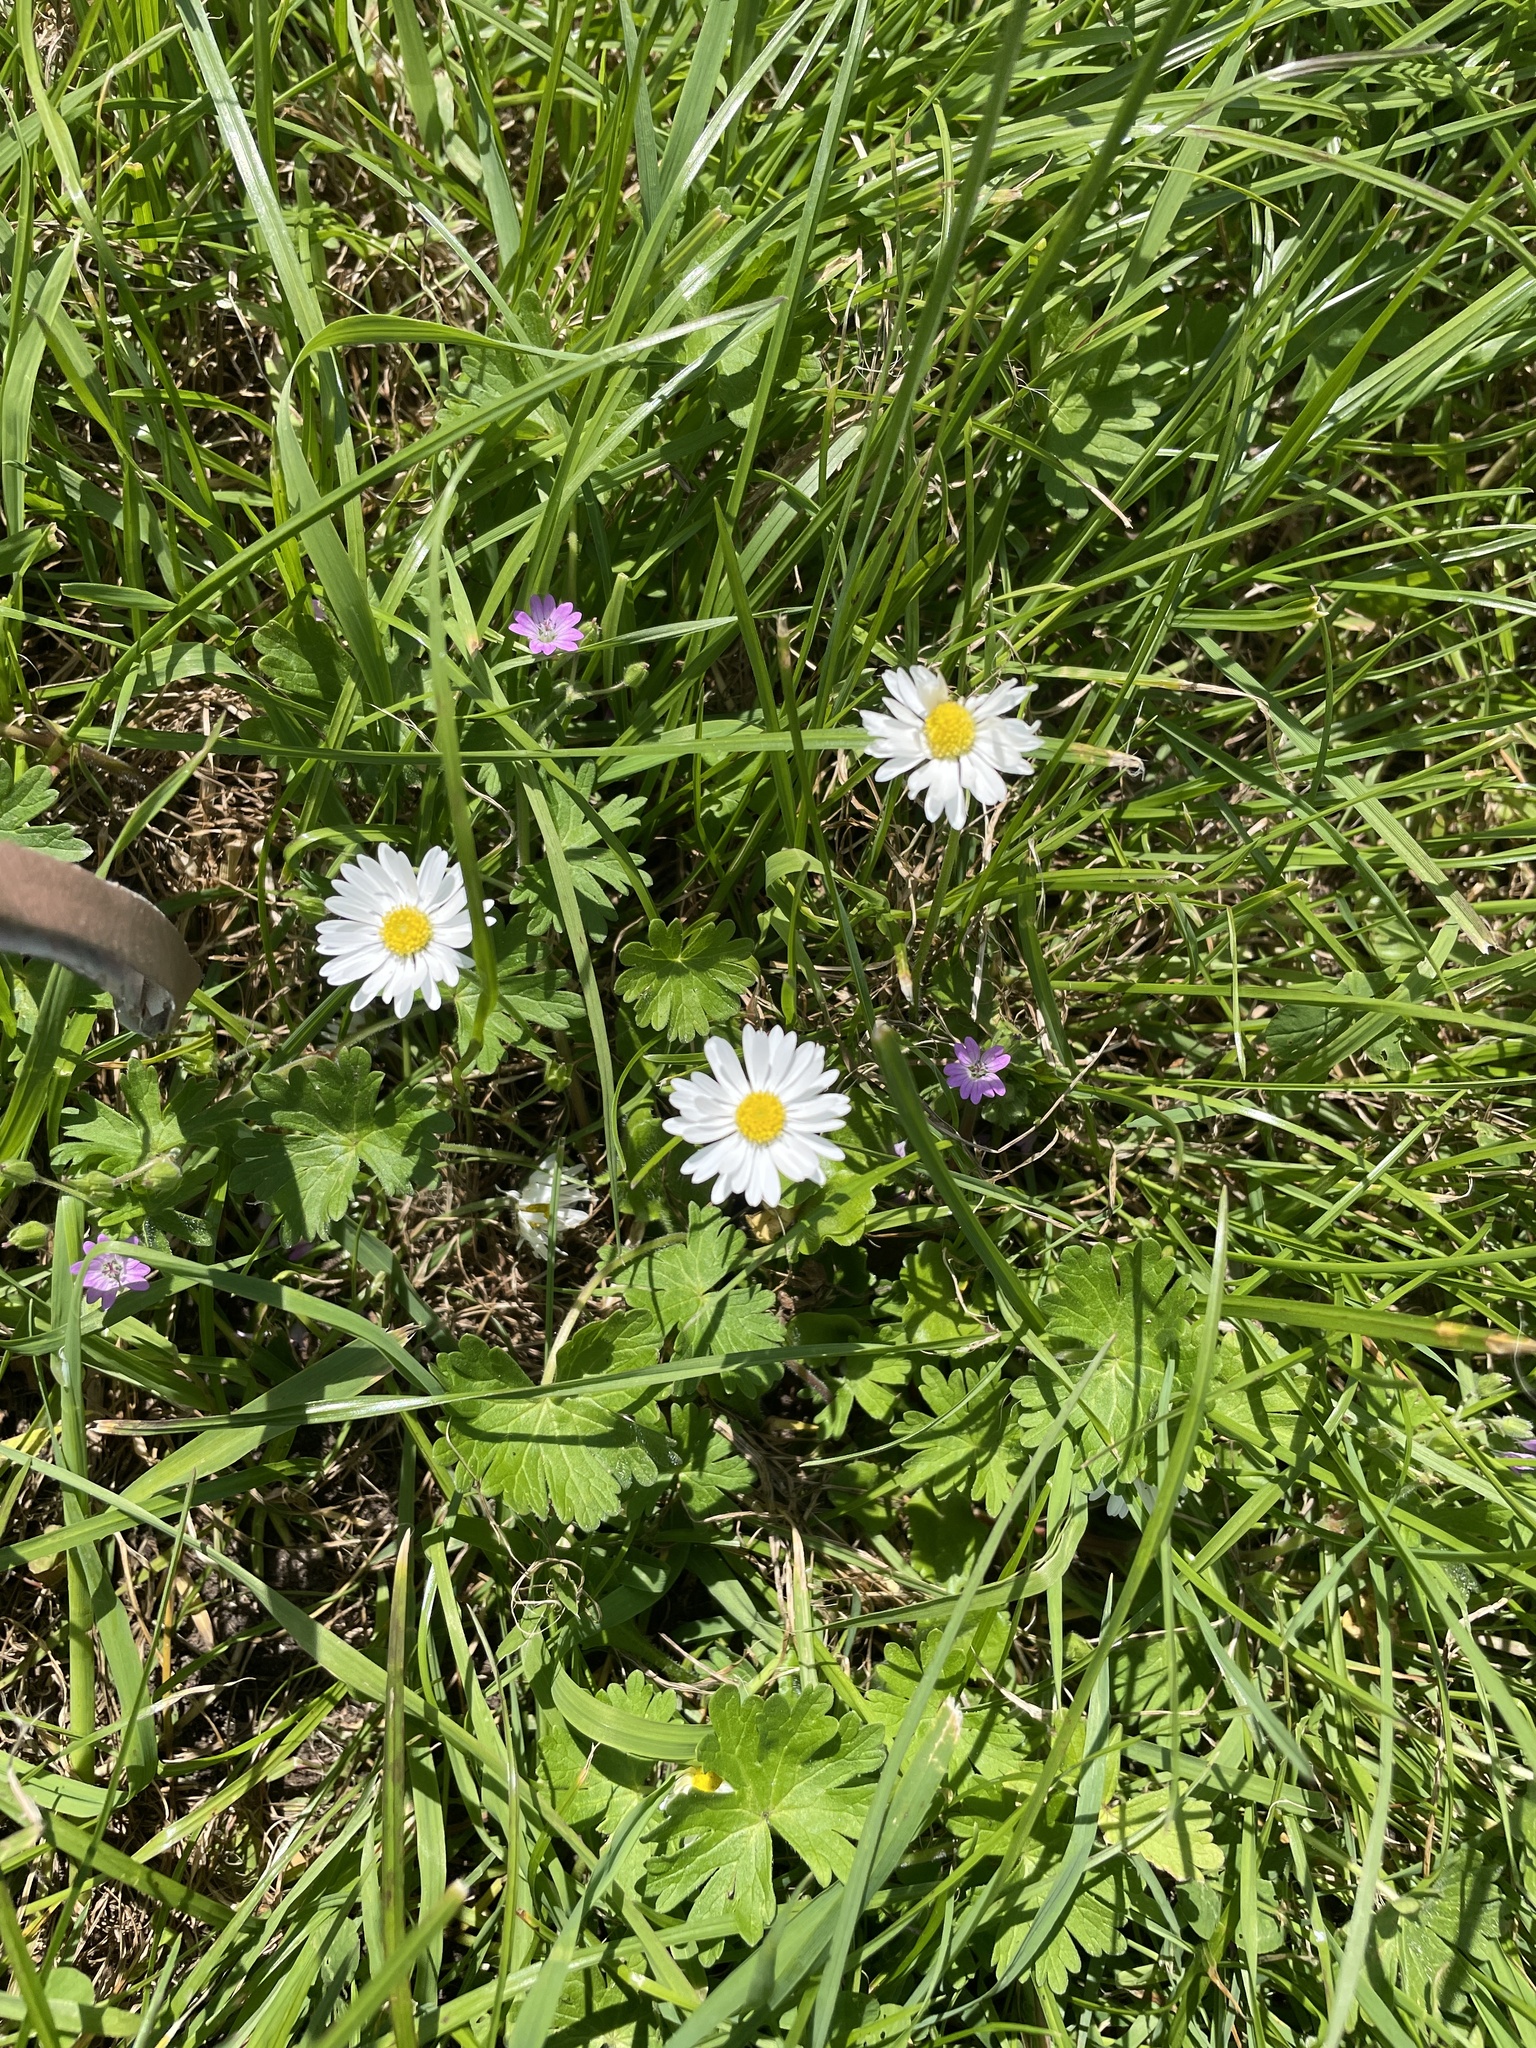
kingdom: Plantae
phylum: Tracheophyta
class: Magnoliopsida
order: Asterales
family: Asteraceae
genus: Bellis
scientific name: Bellis perennis
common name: Lawndaisy
